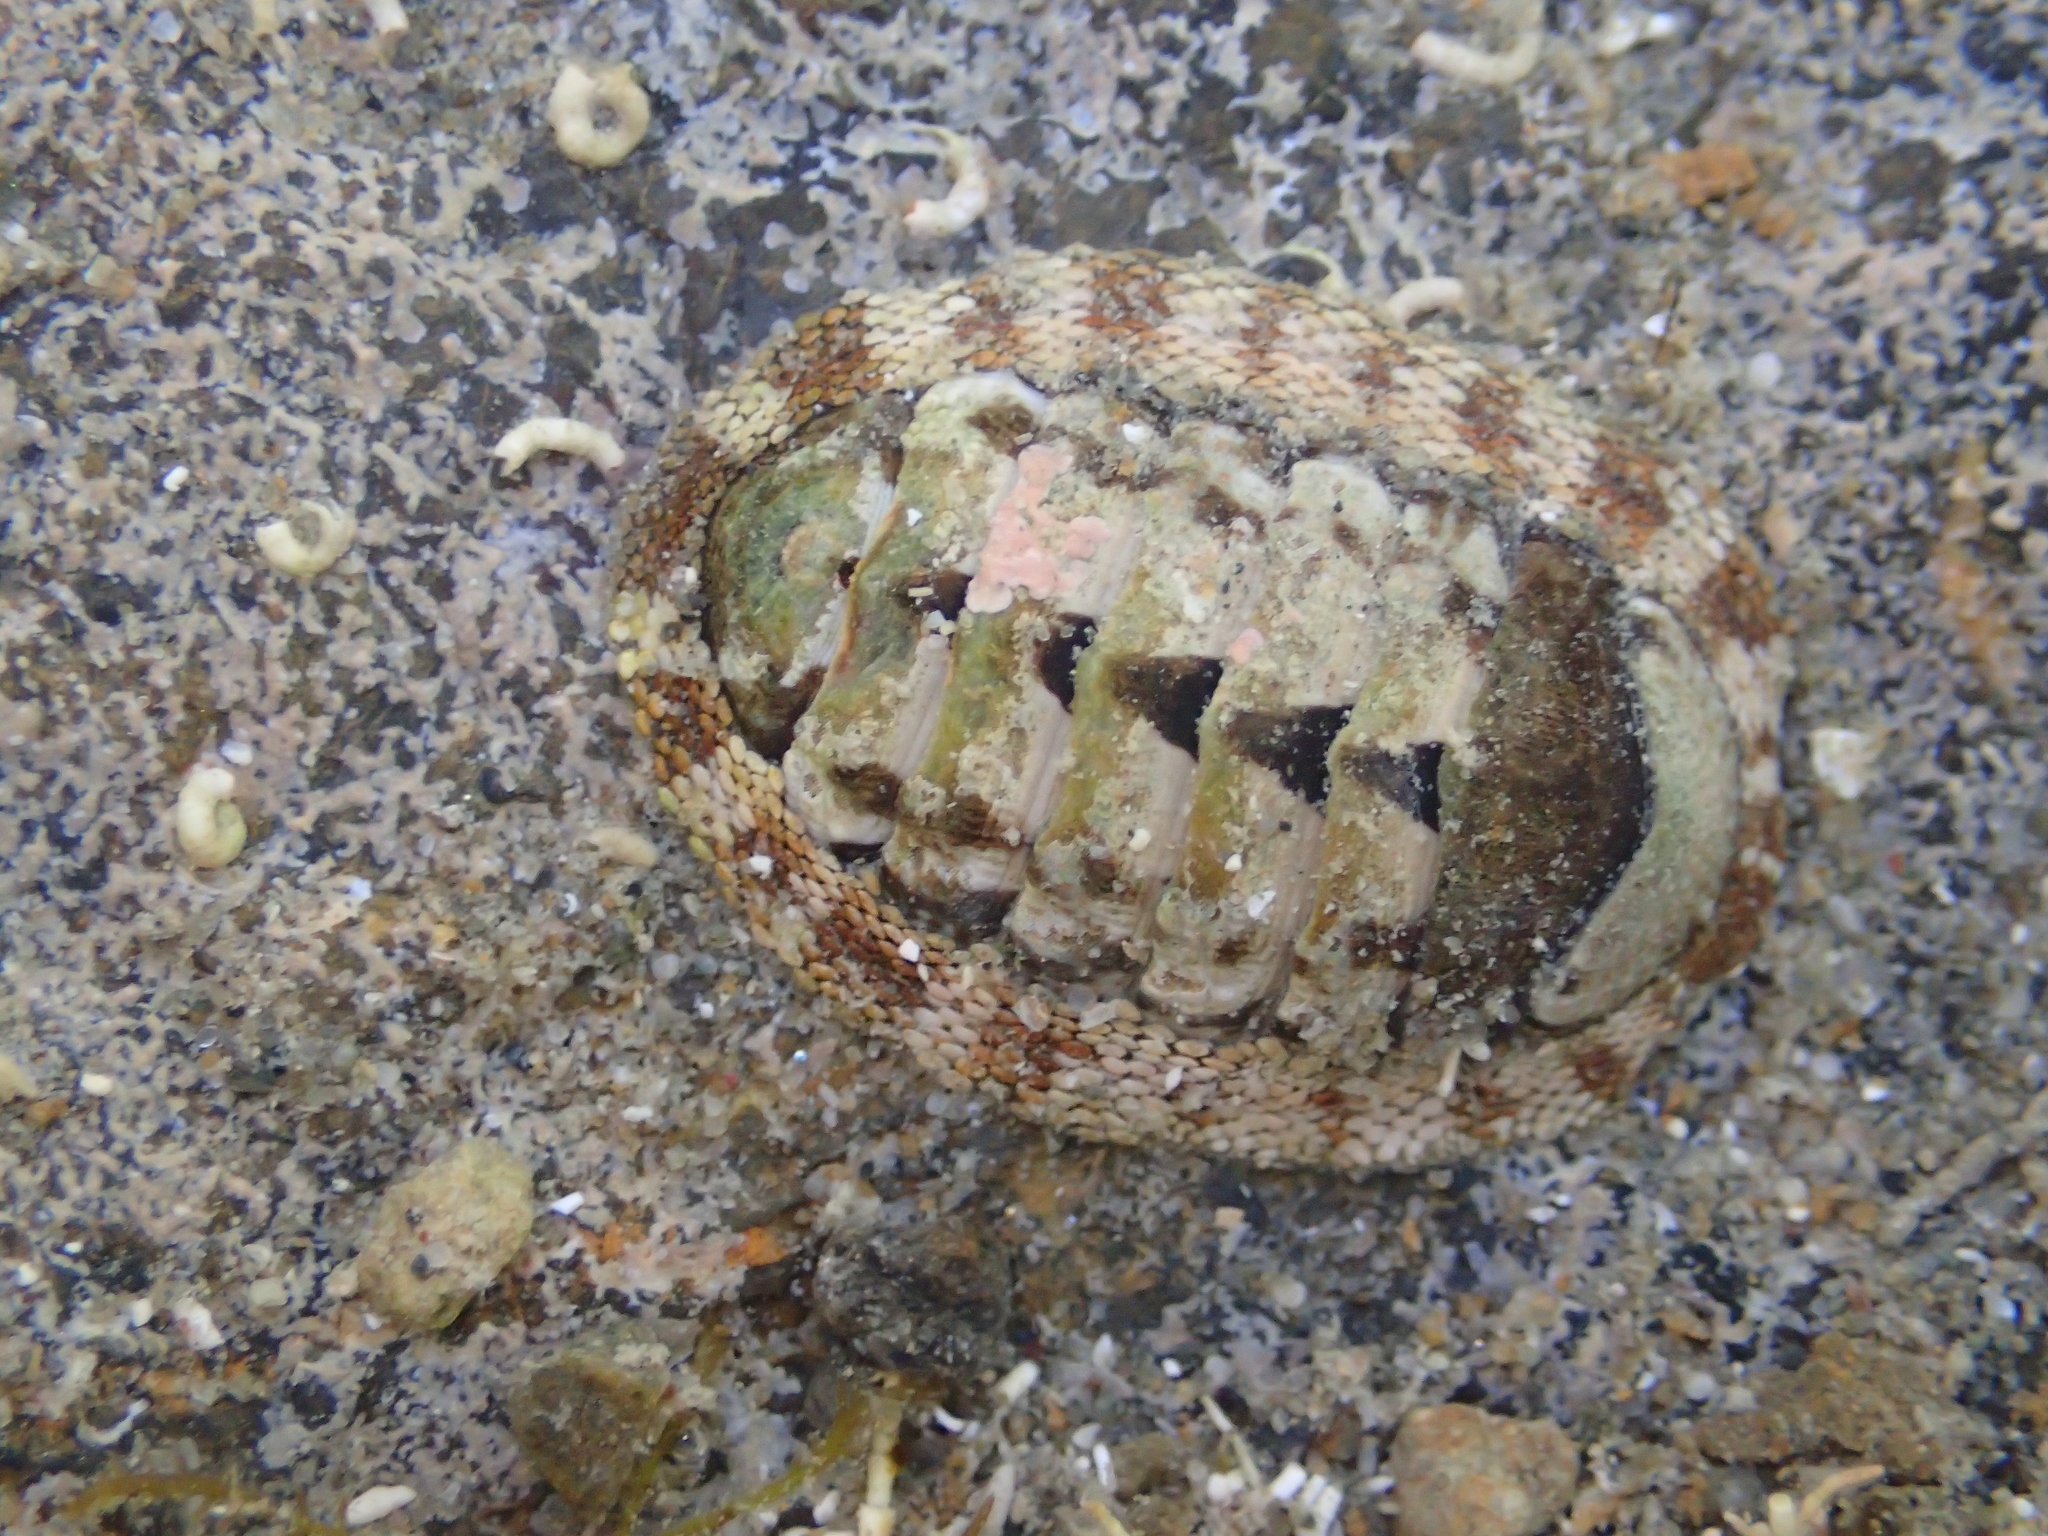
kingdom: Animalia
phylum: Mollusca
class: Polyplacophora
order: Chitonida
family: Chitonidae
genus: Sypharochiton
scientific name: Sypharochiton pelliserpentis
